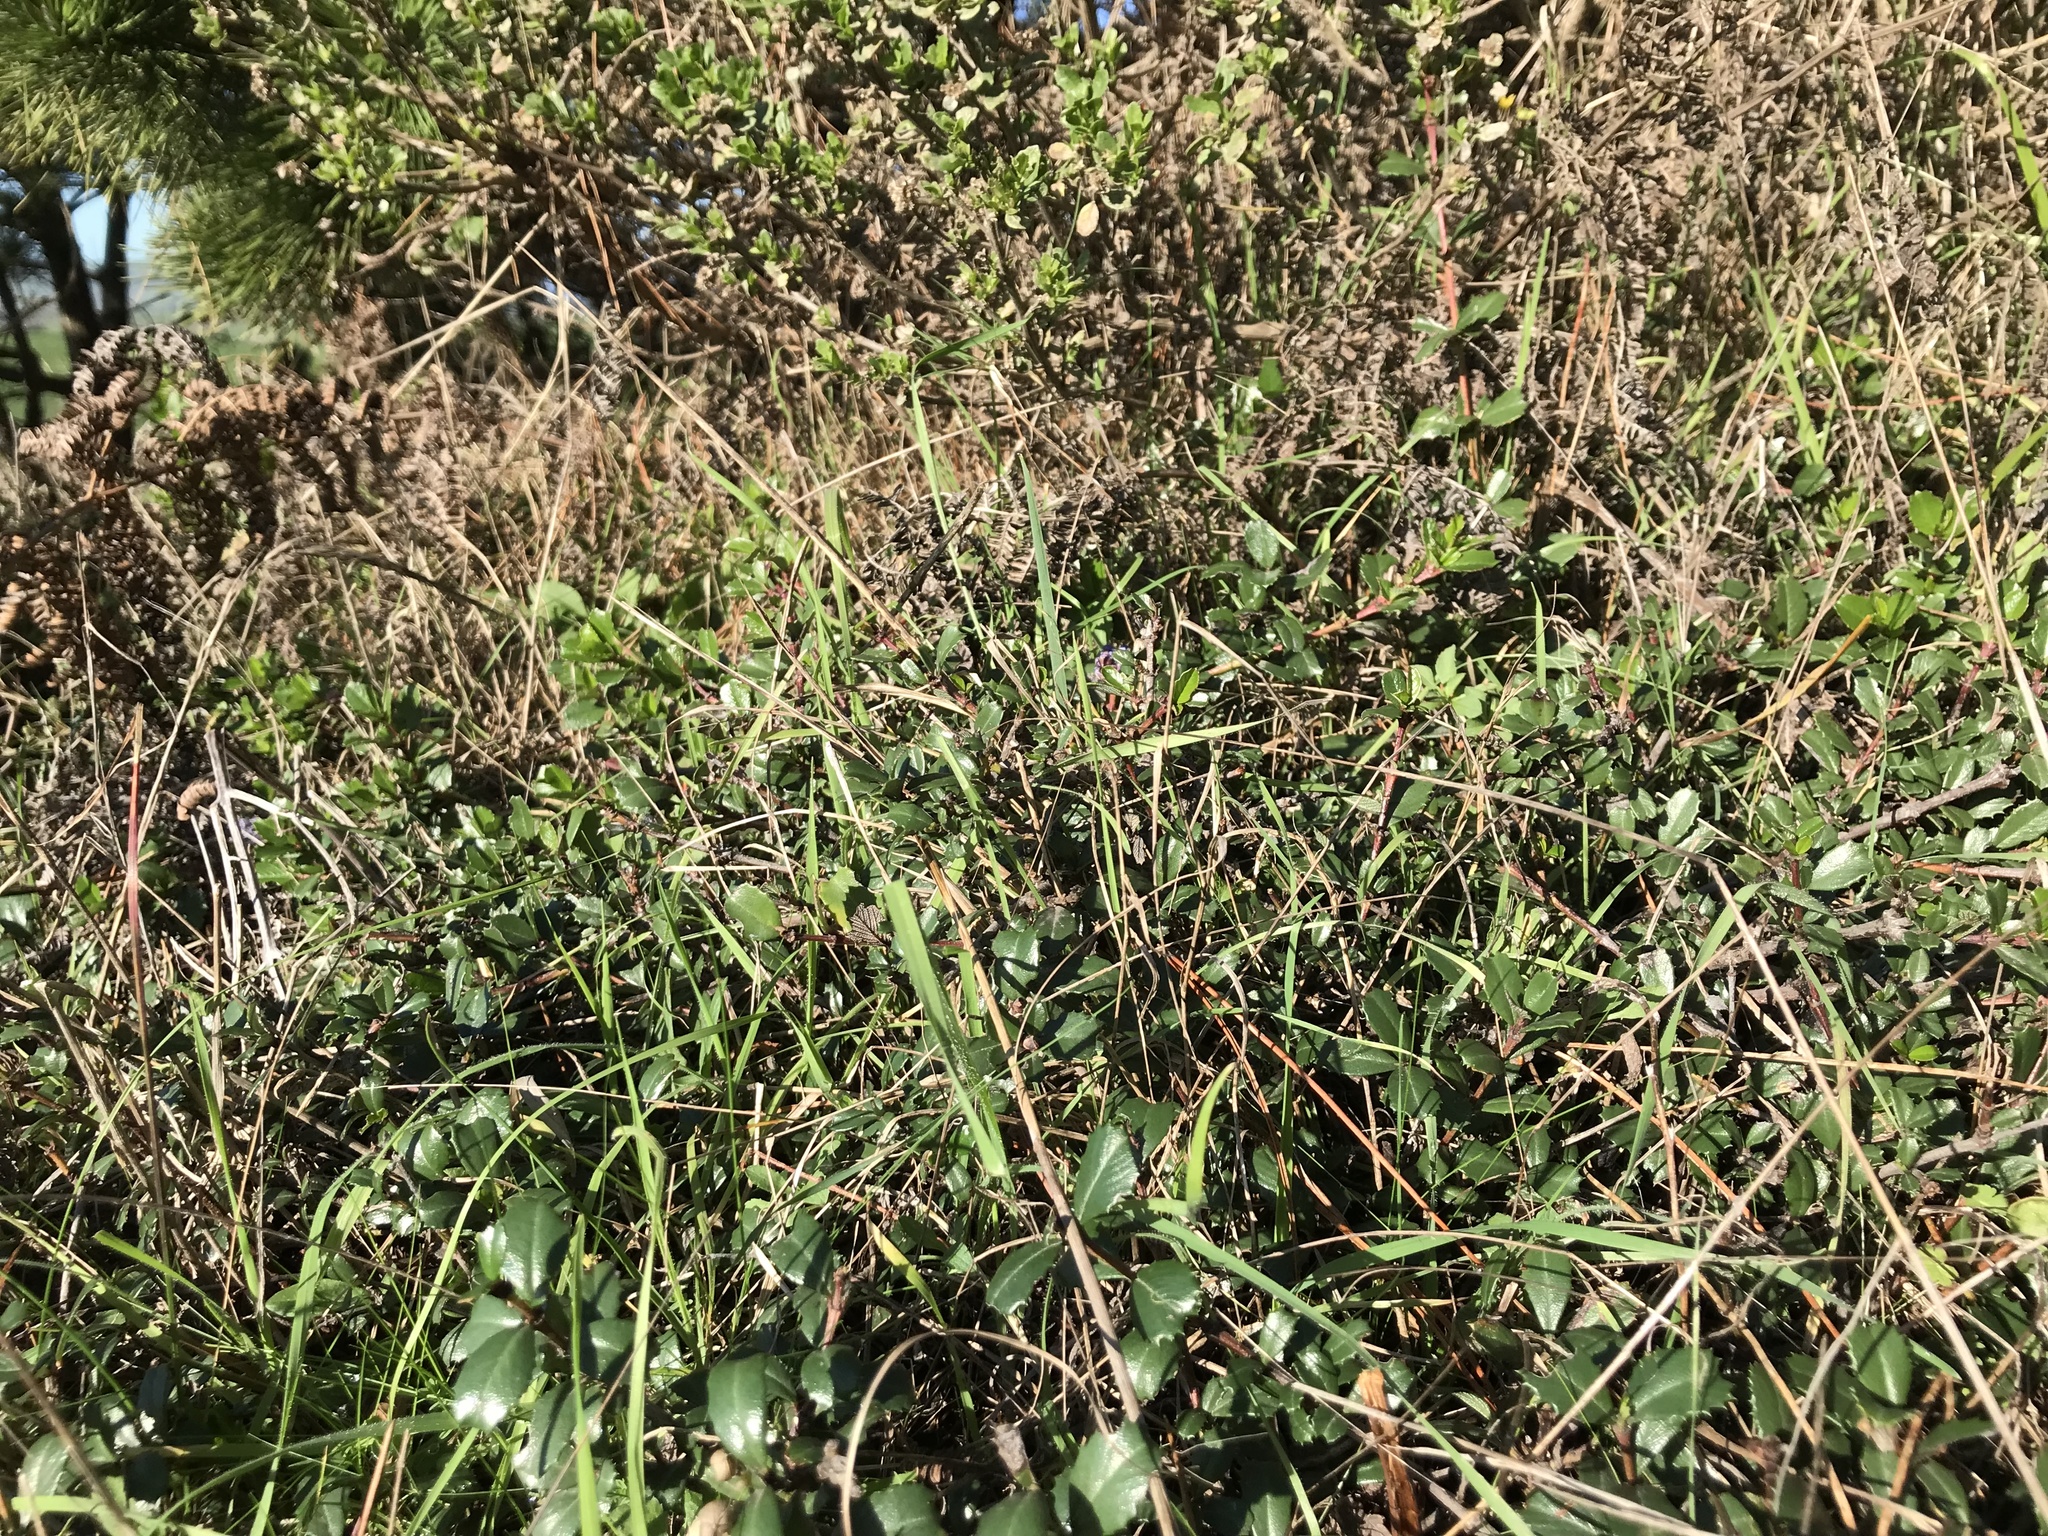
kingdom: Plantae
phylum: Tracheophyta
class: Magnoliopsida
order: Rosales
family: Rhamnaceae
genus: Ceanothus
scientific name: Ceanothus gloriosus
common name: Point reyes ceanothus
